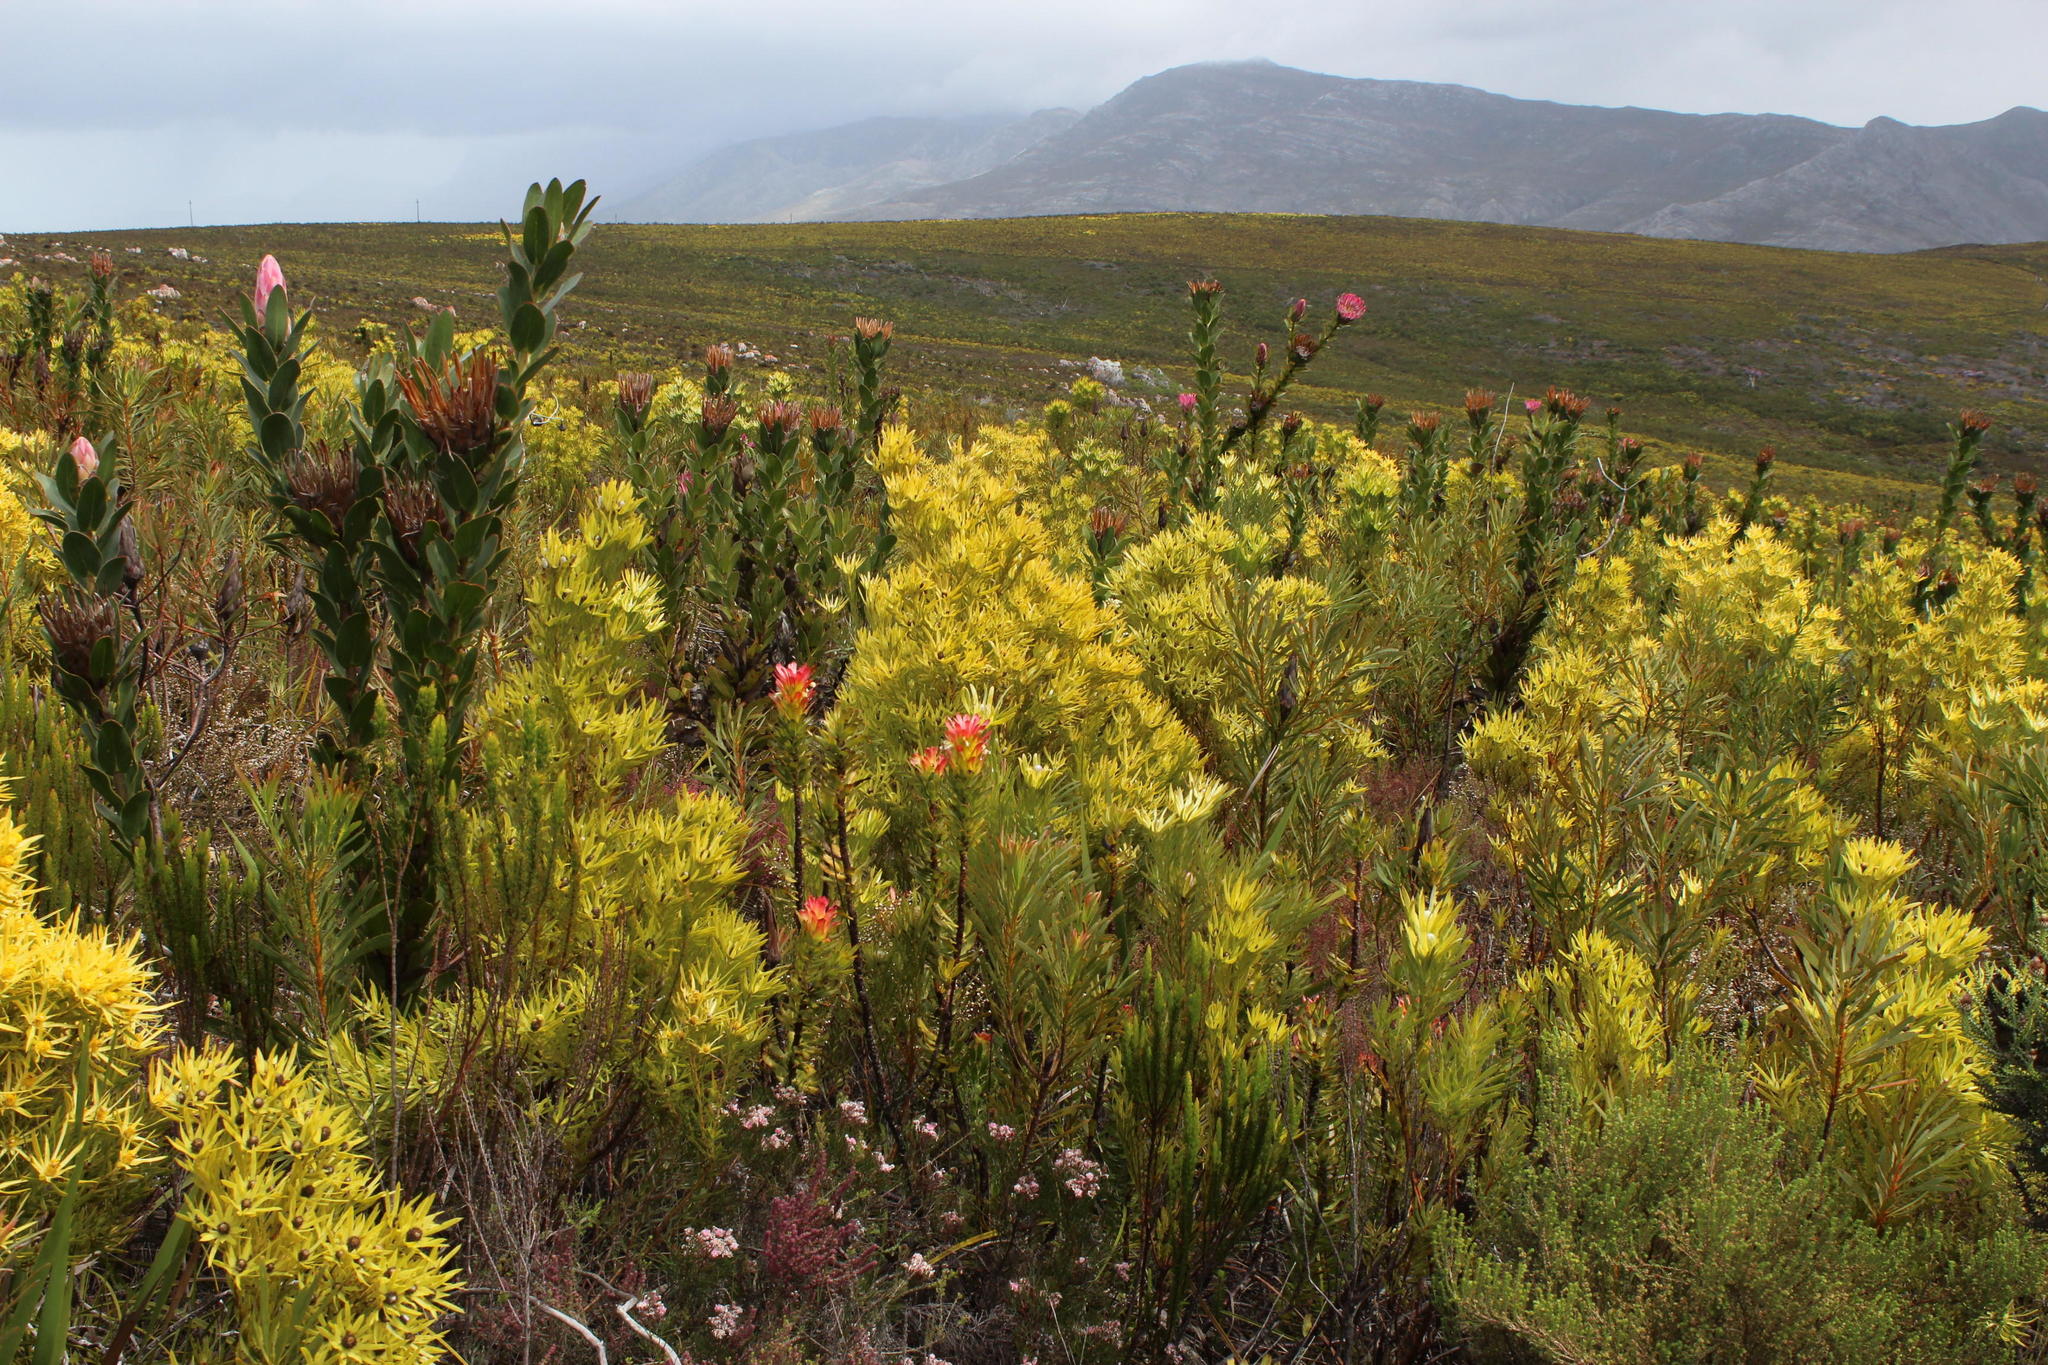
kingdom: Plantae
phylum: Tracheophyta
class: Magnoliopsida
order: Proteales
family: Proteaceae
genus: Leucadendron
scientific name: Leucadendron xanthoconus
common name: Sickle-leaf conebush
